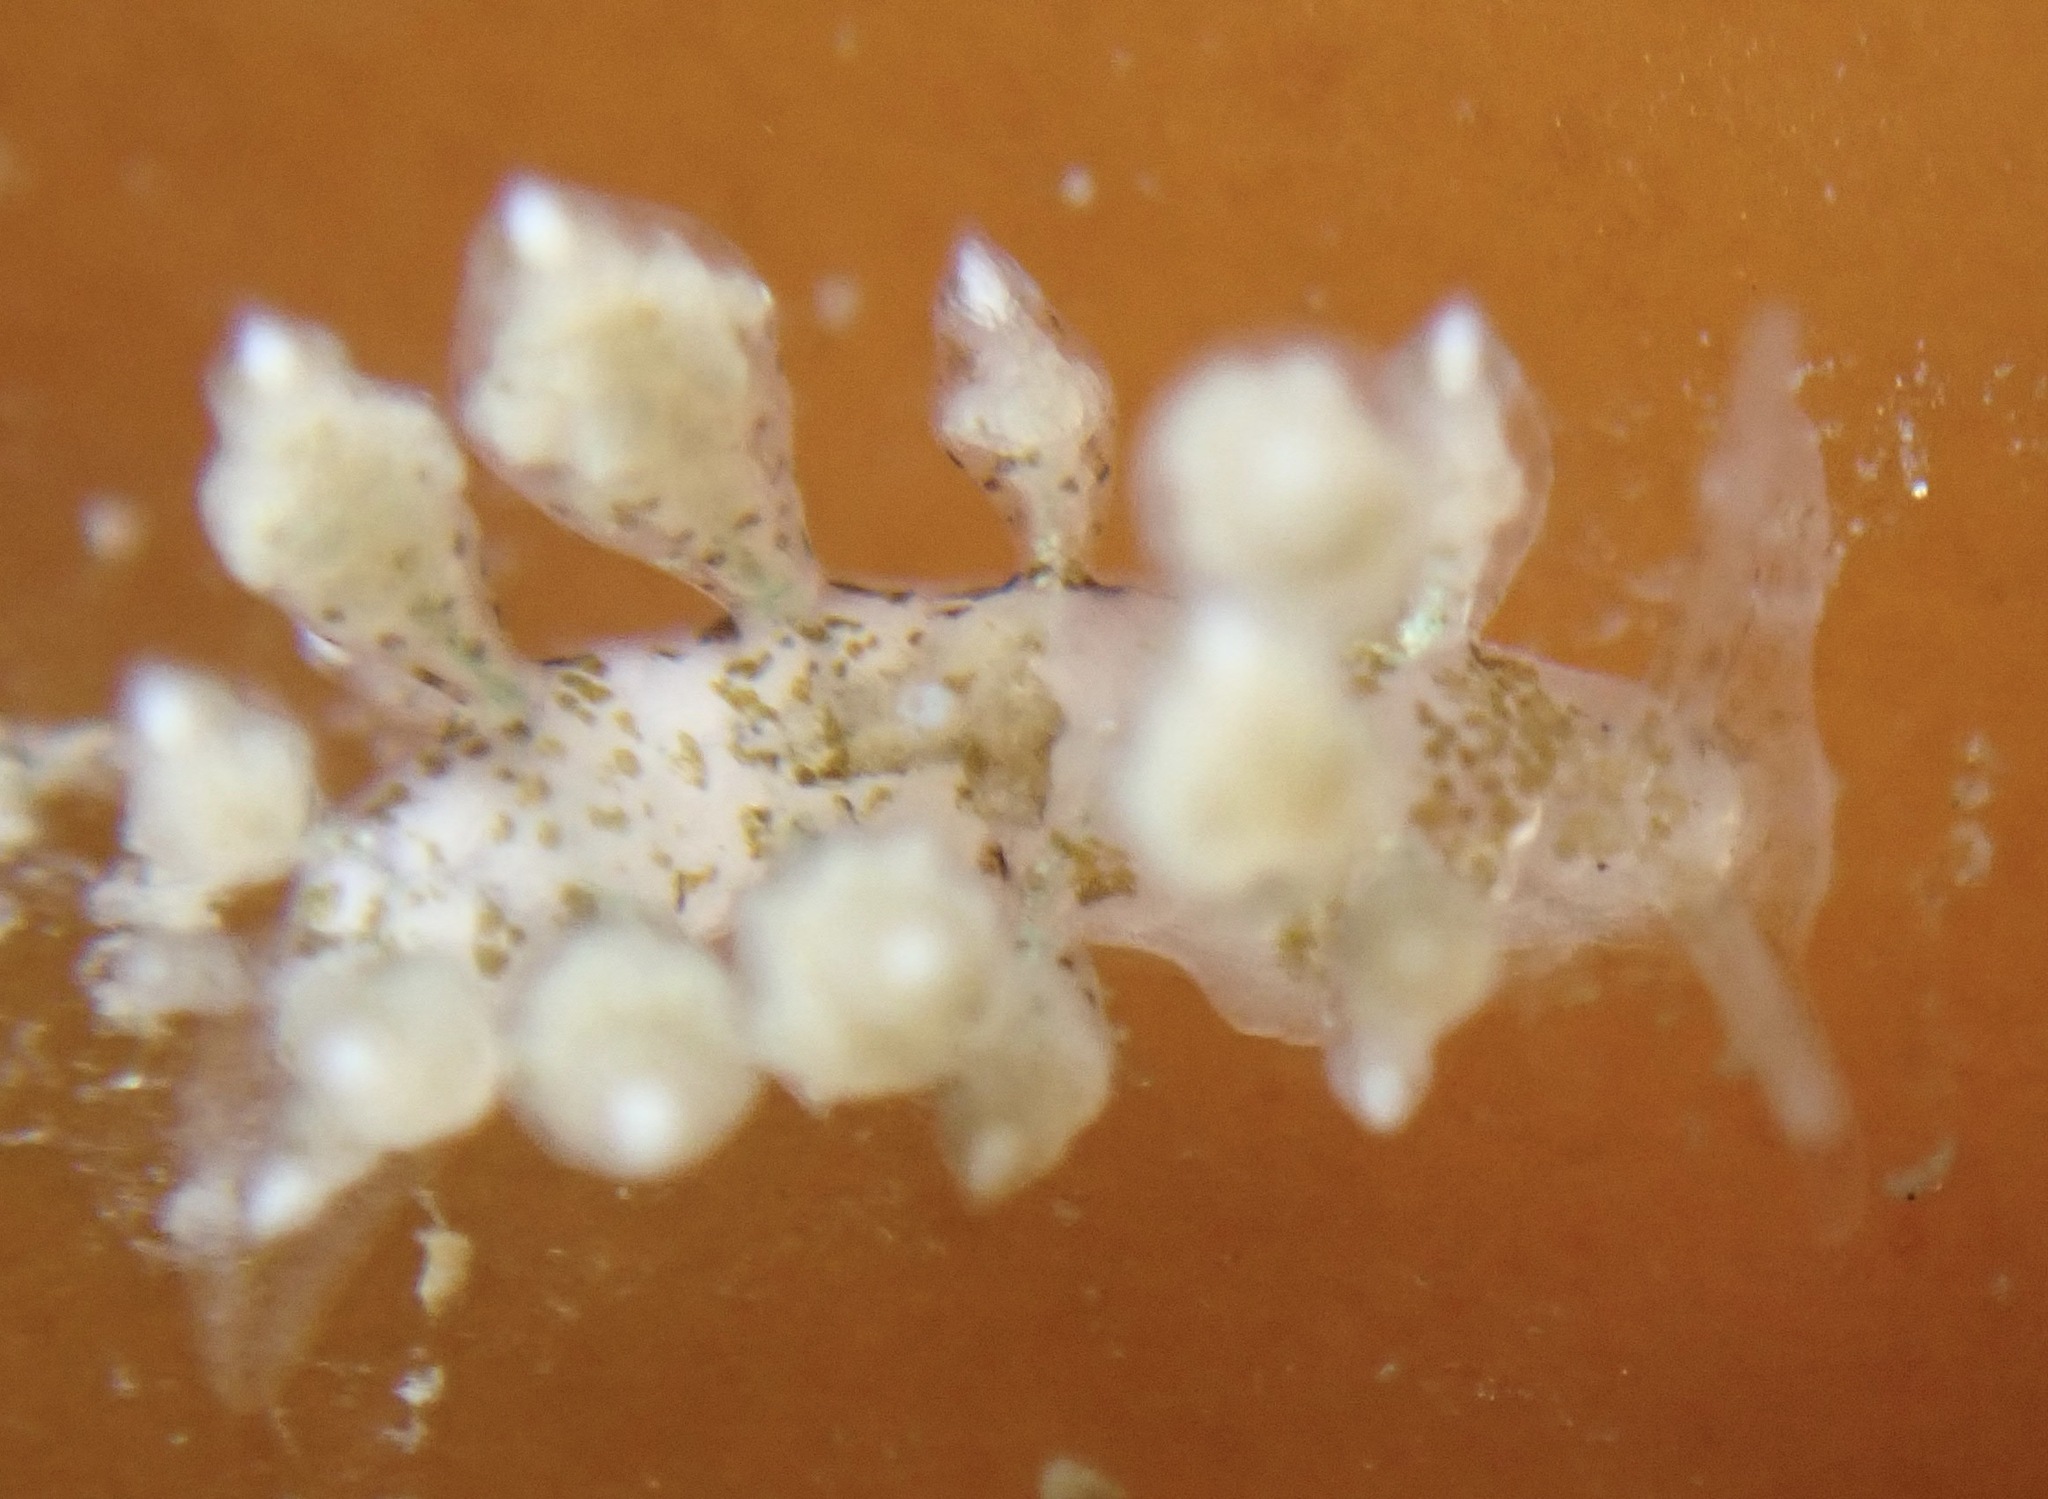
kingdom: Animalia
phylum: Mollusca
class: Gastropoda
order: Nudibranchia
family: Eubranchidae
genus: Eubranchus
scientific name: Eubranchus rustyus
